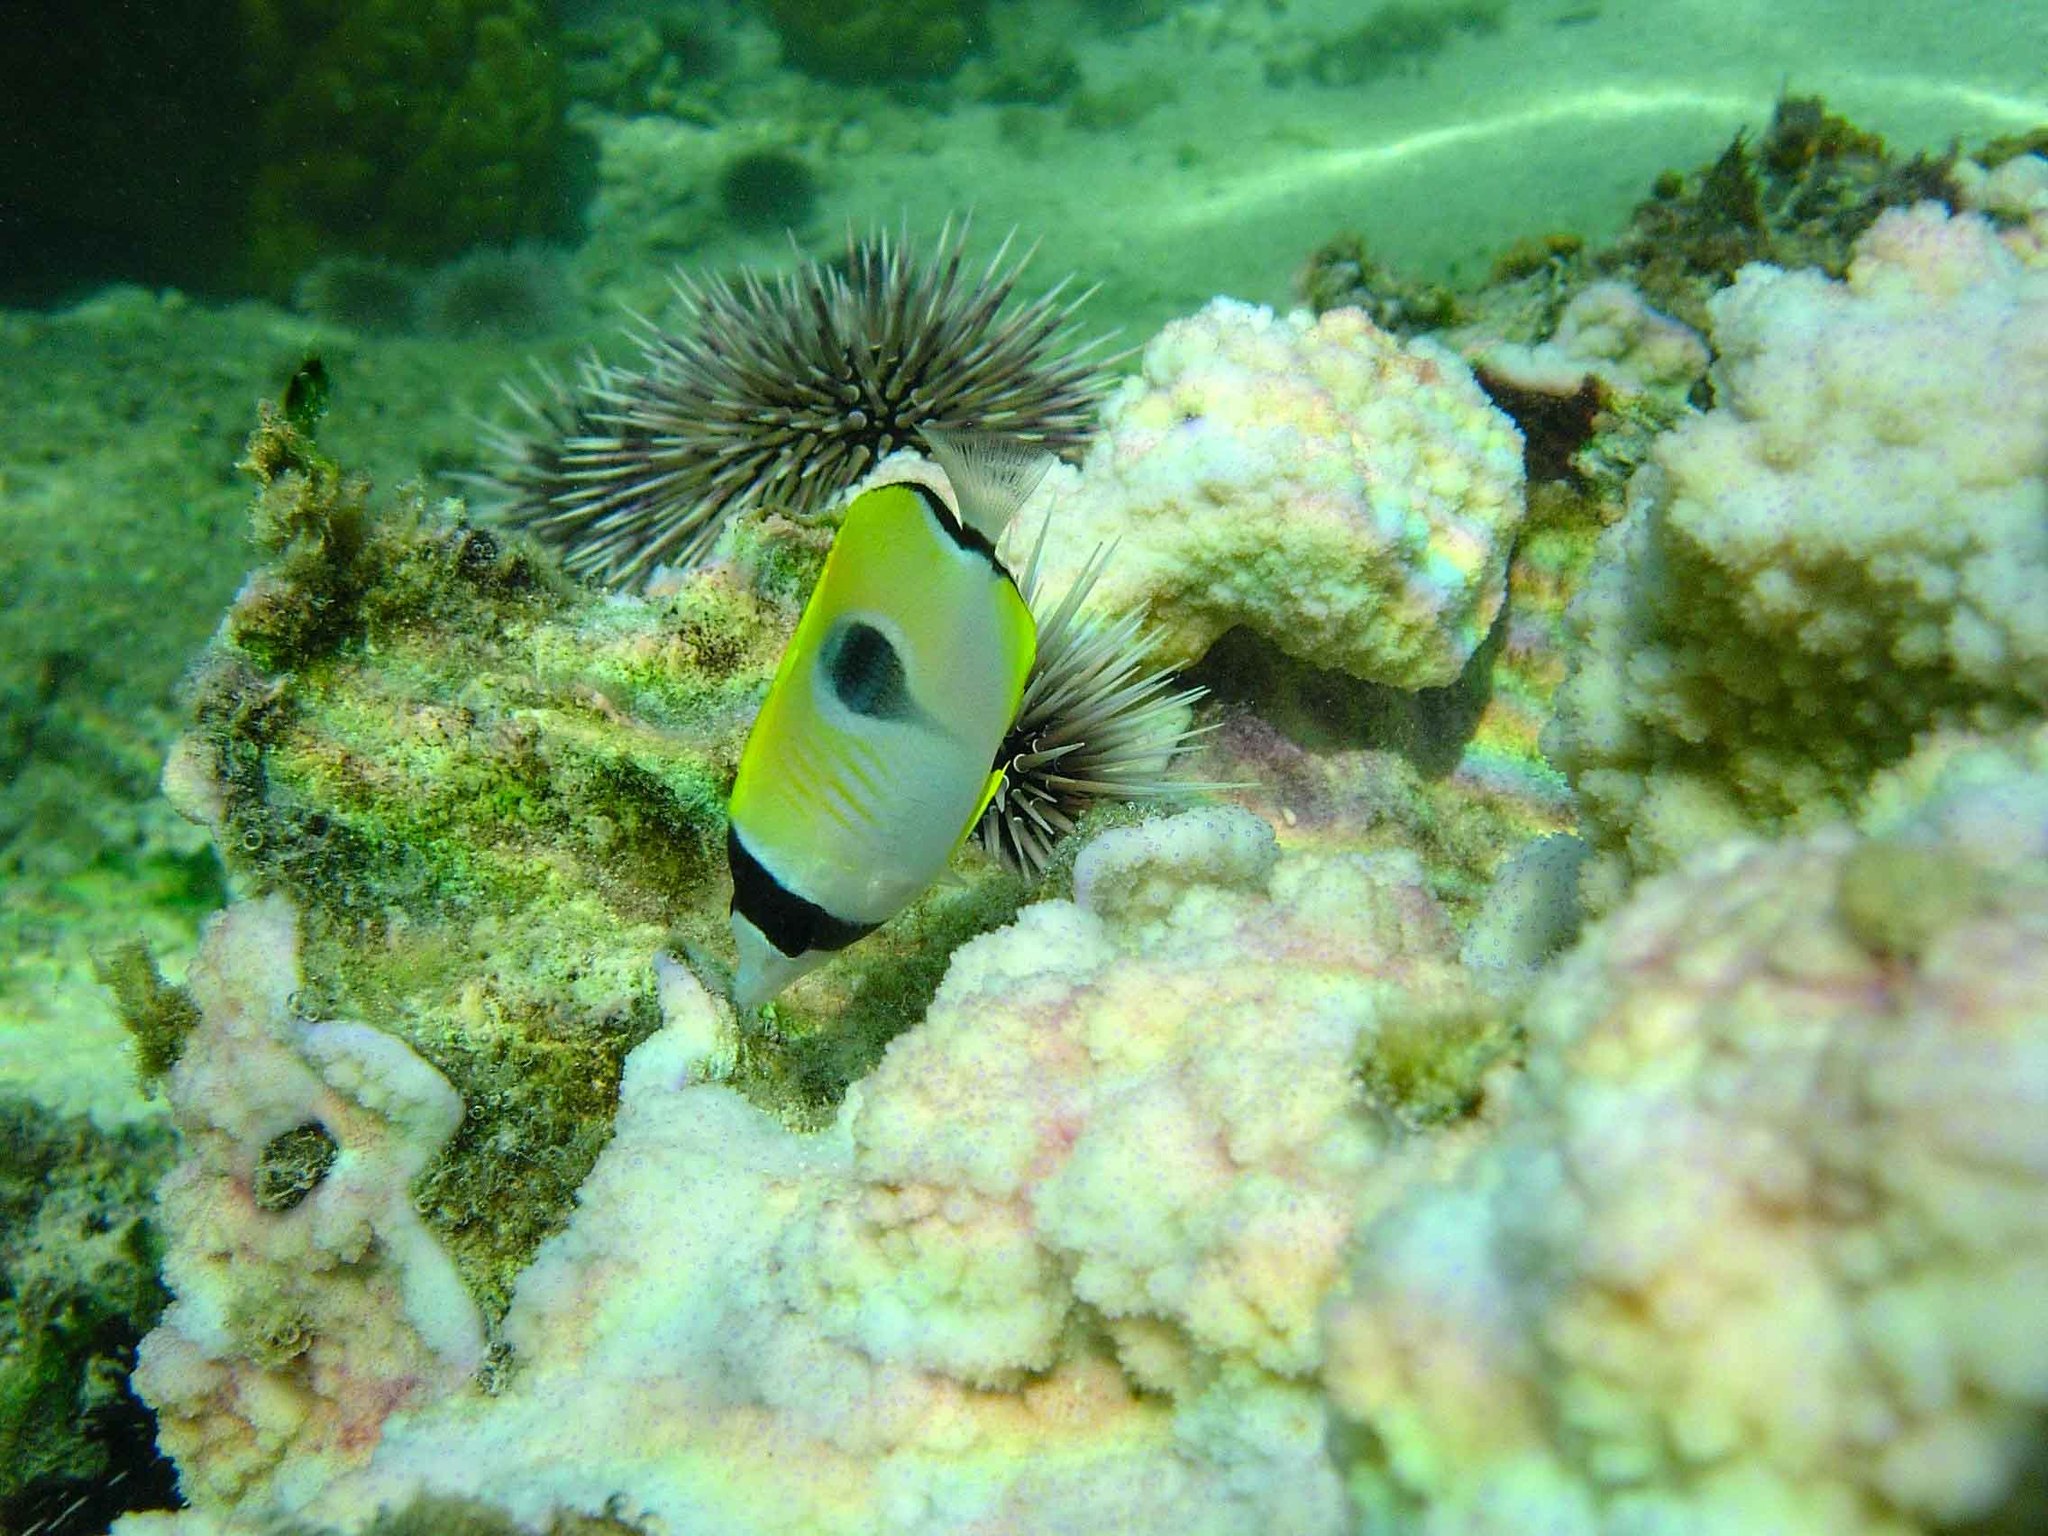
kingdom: Animalia
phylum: Chordata
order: Perciformes
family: Chaetodontidae
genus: Chaetodon
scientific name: Chaetodon unimaculatus
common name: Teardrop butterflyfish
